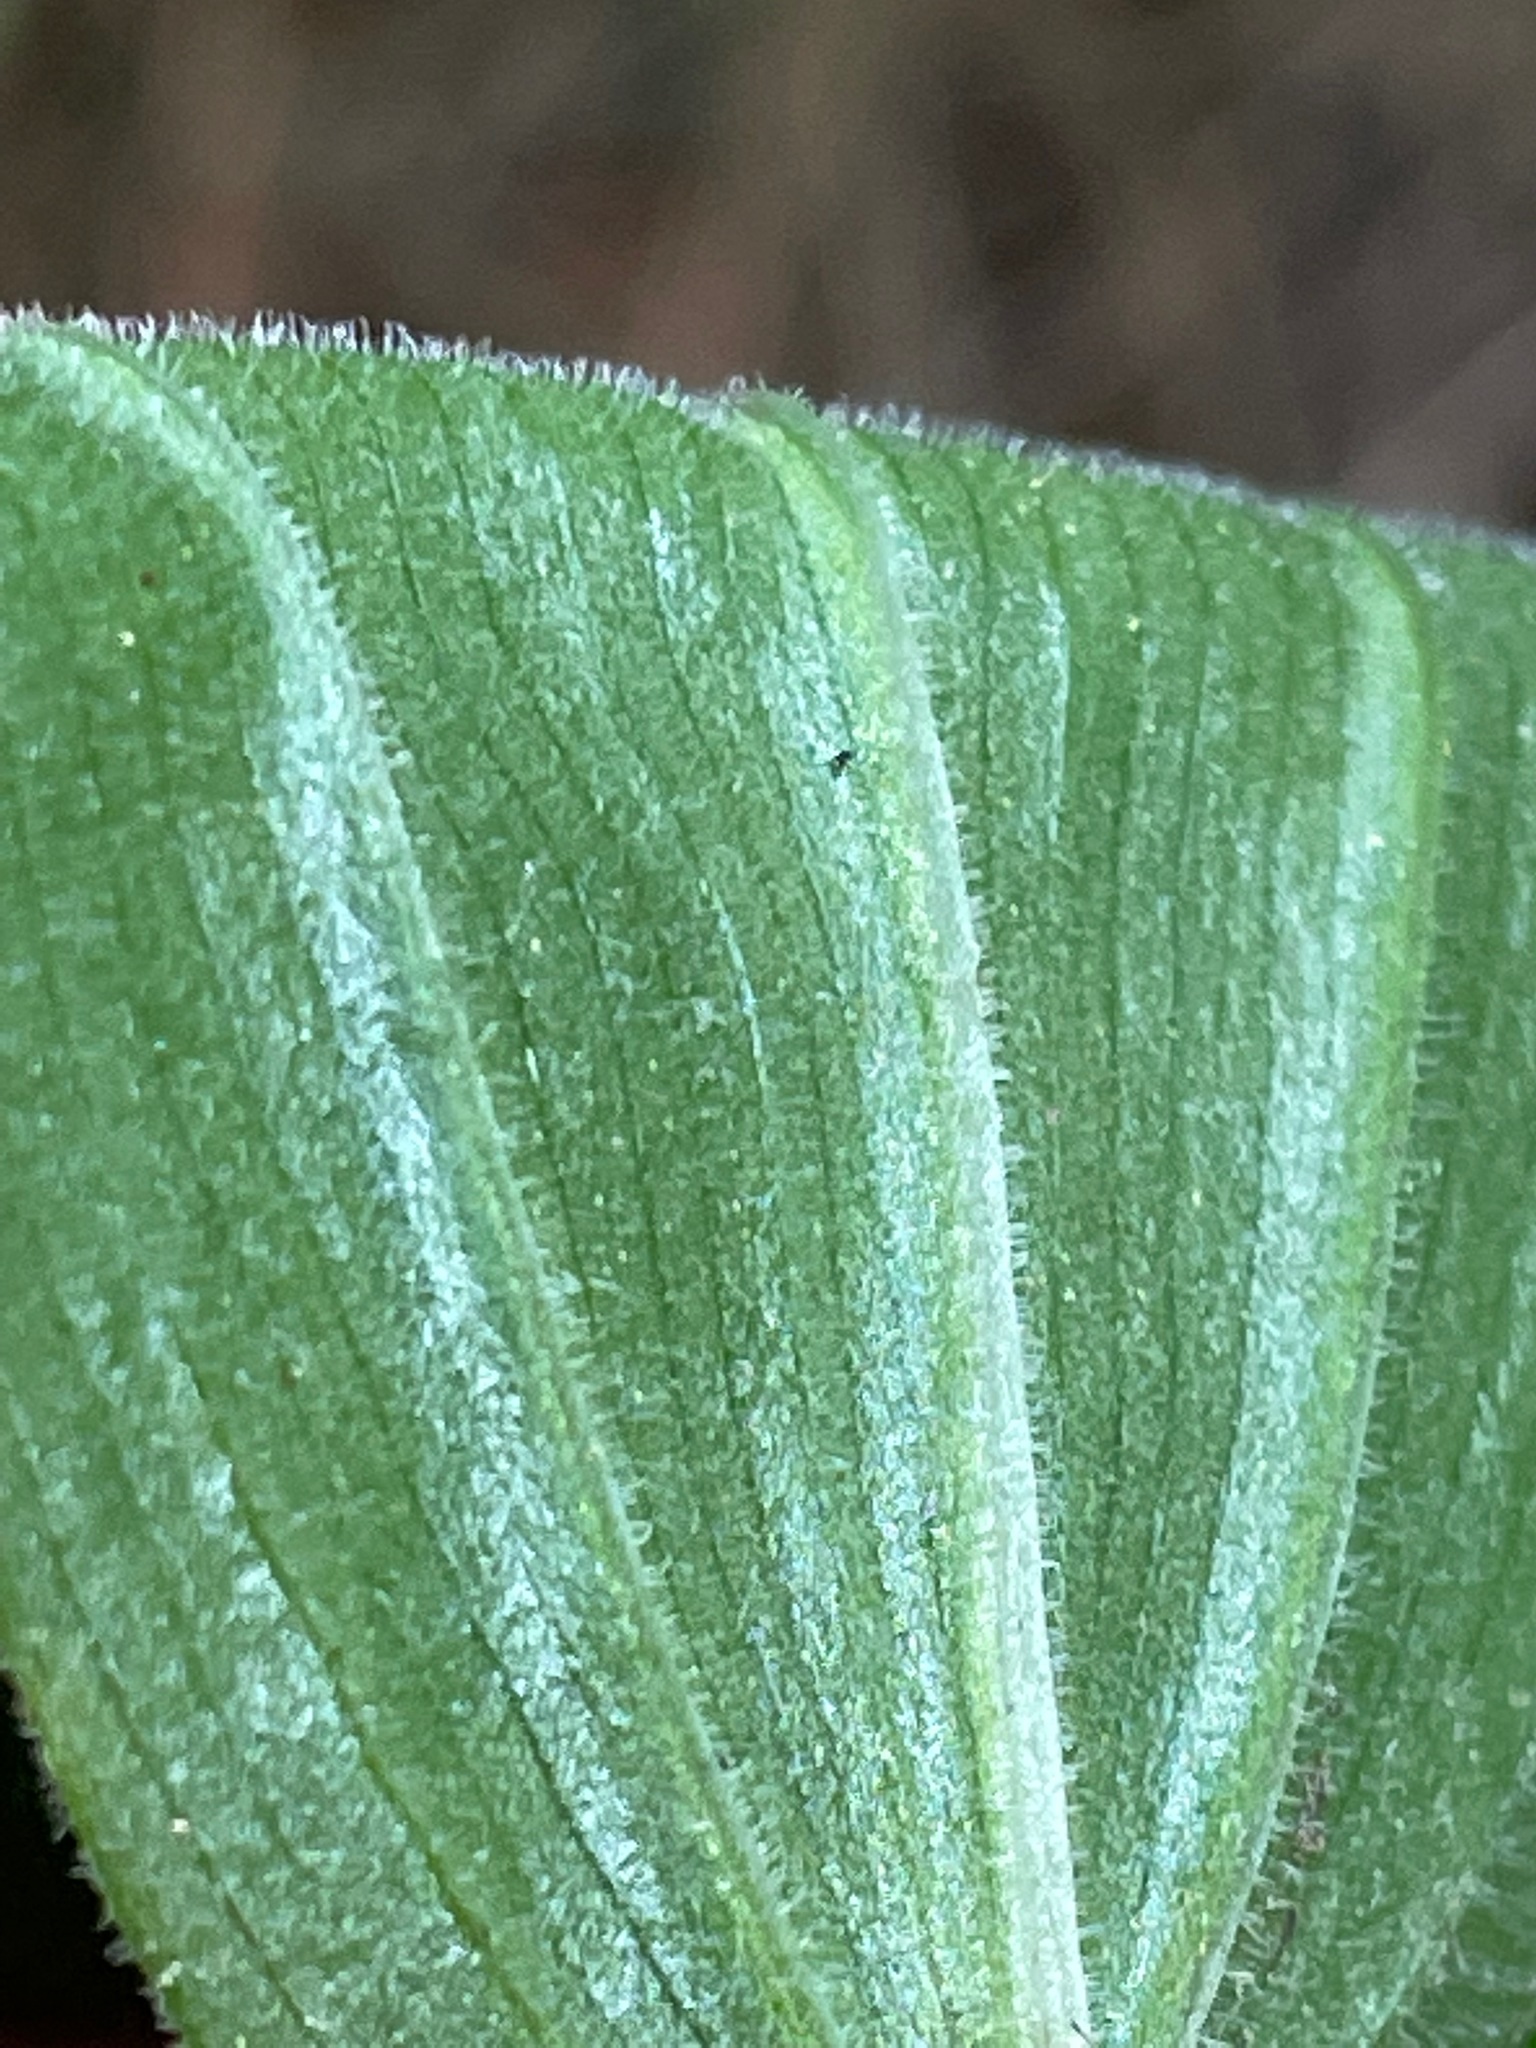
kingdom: Plantae
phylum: Tracheophyta
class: Liliopsida
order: Asparagales
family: Asparagaceae
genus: Maianthemum
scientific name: Maianthemum racemosum
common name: False spikenard
